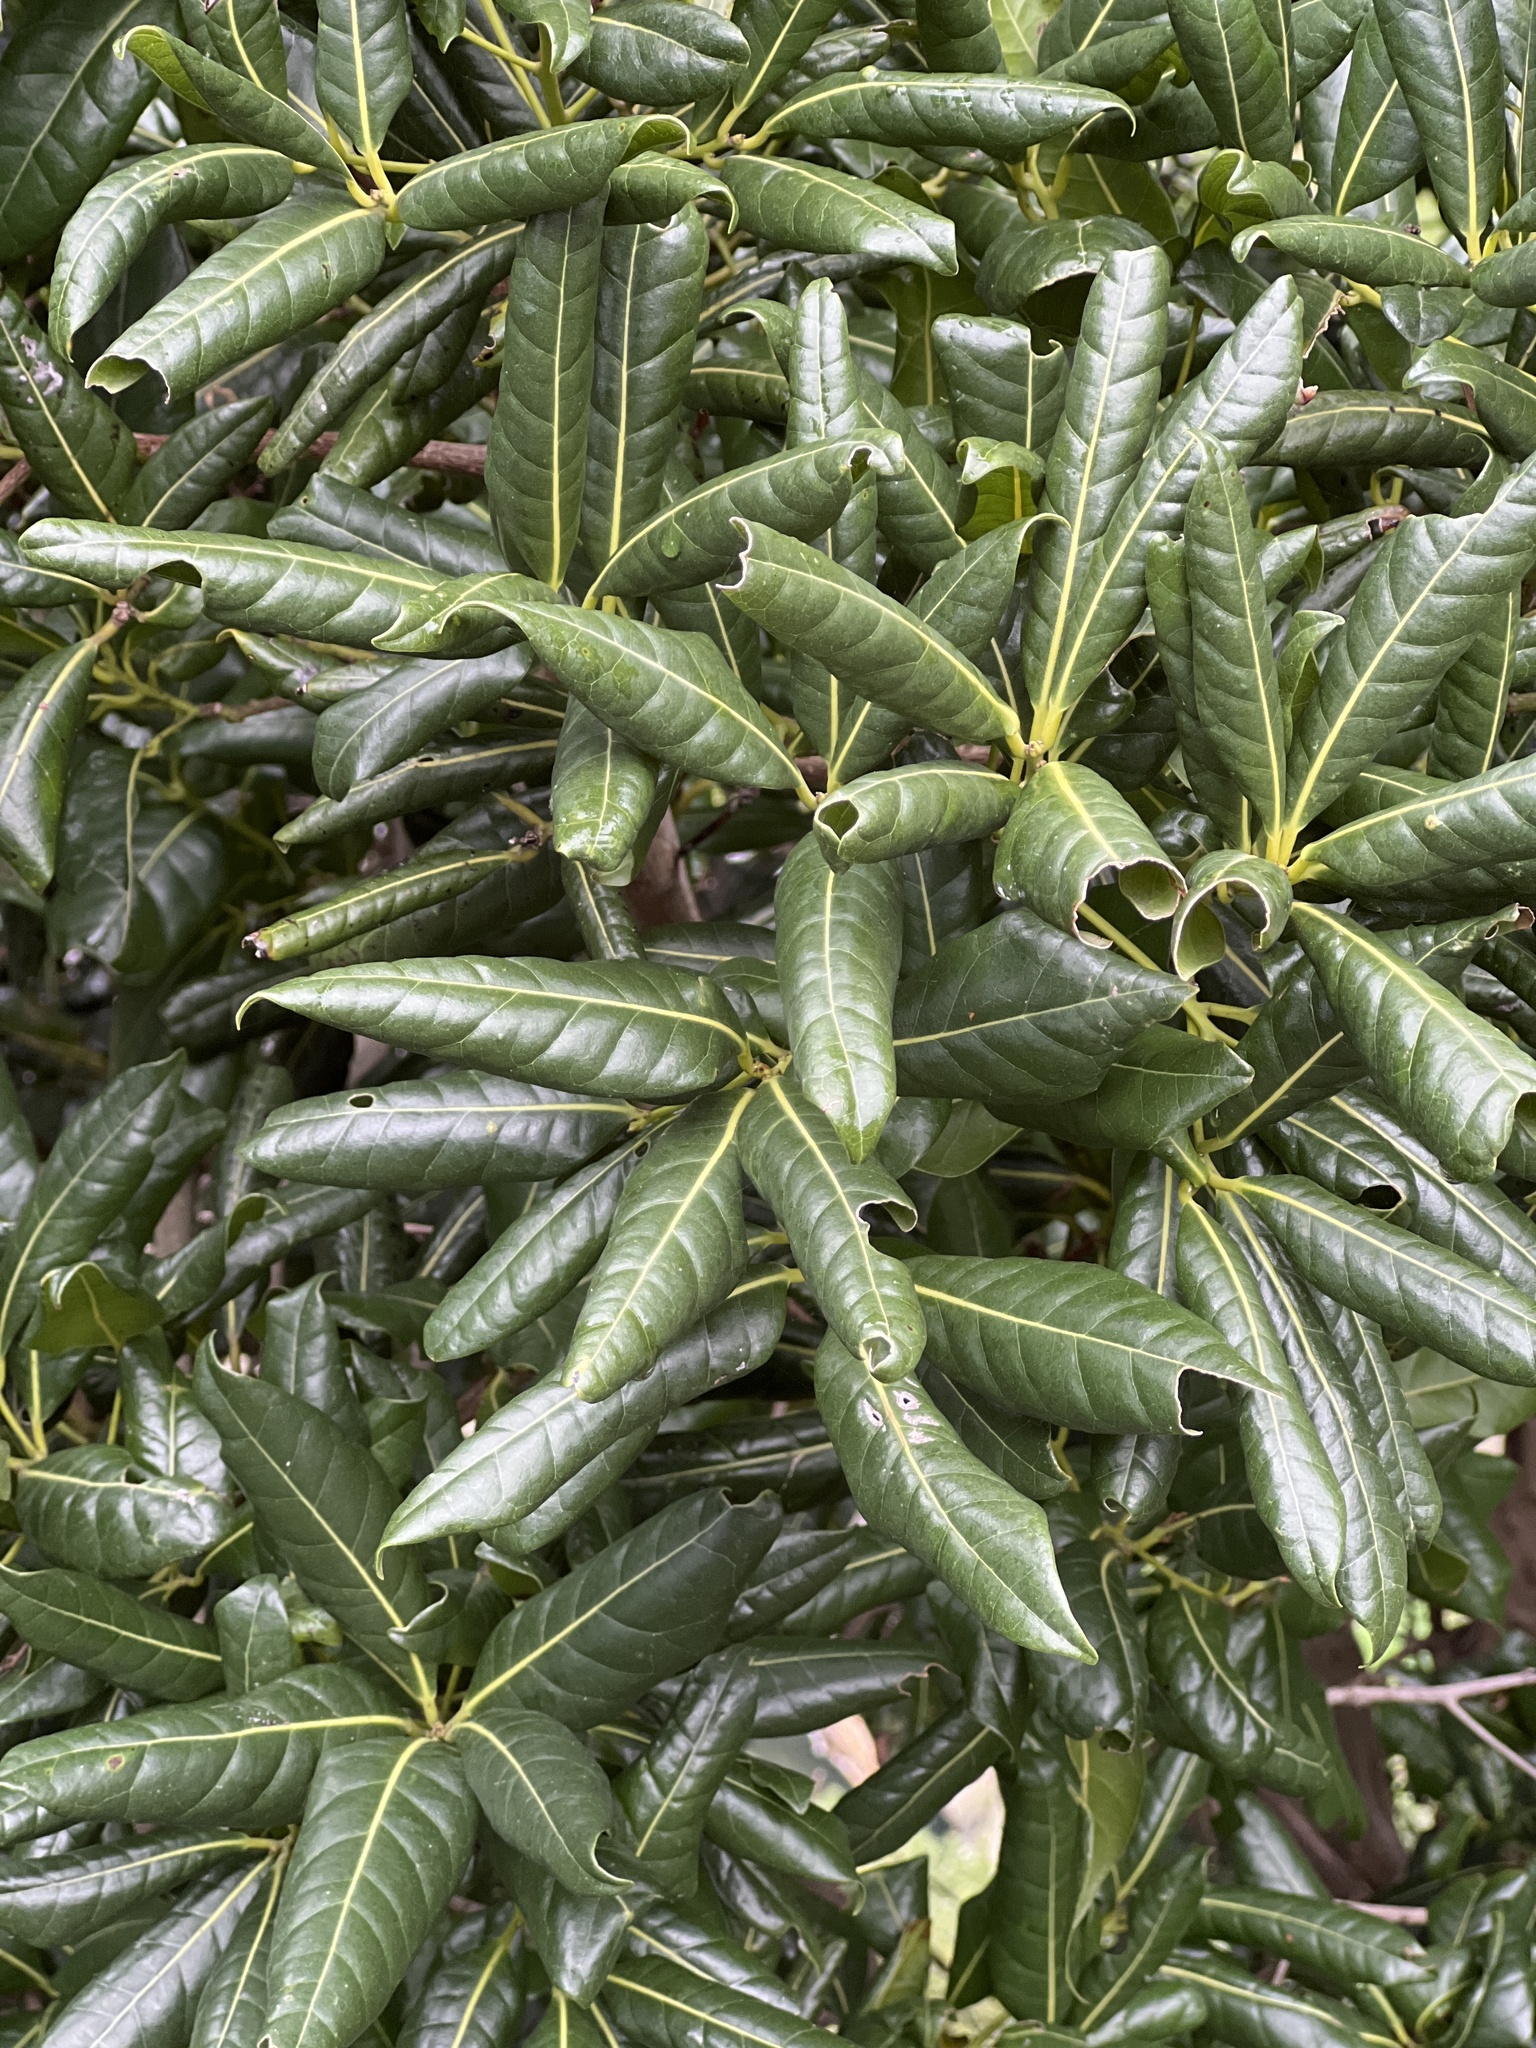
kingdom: Plantae
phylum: Tracheophyta
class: Magnoliopsida
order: Laurales
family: Lauraceae
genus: Apollonias
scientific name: Apollonias barbujana
